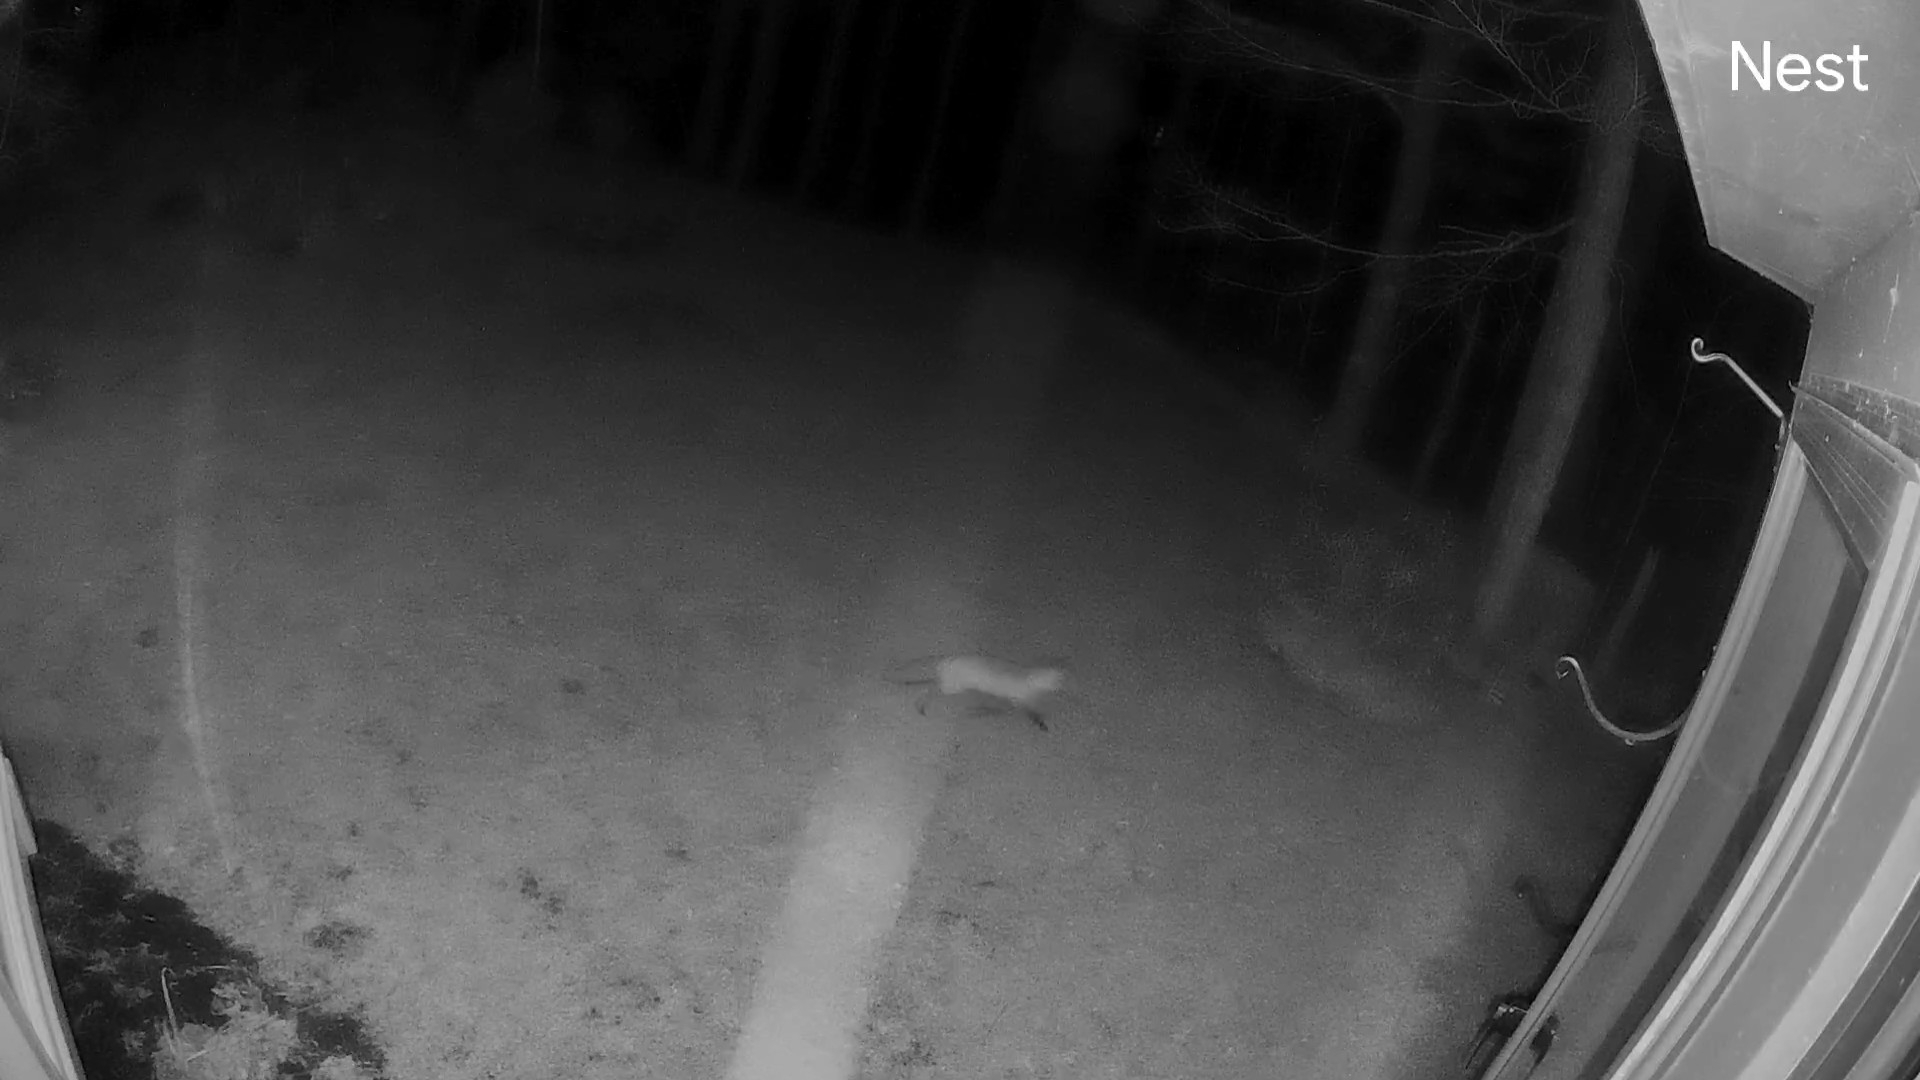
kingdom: Animalia
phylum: Chordata
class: Mammalia
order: Carnivora
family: Canidae
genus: Vulpes
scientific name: Vulpes vulpes
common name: Red fox
